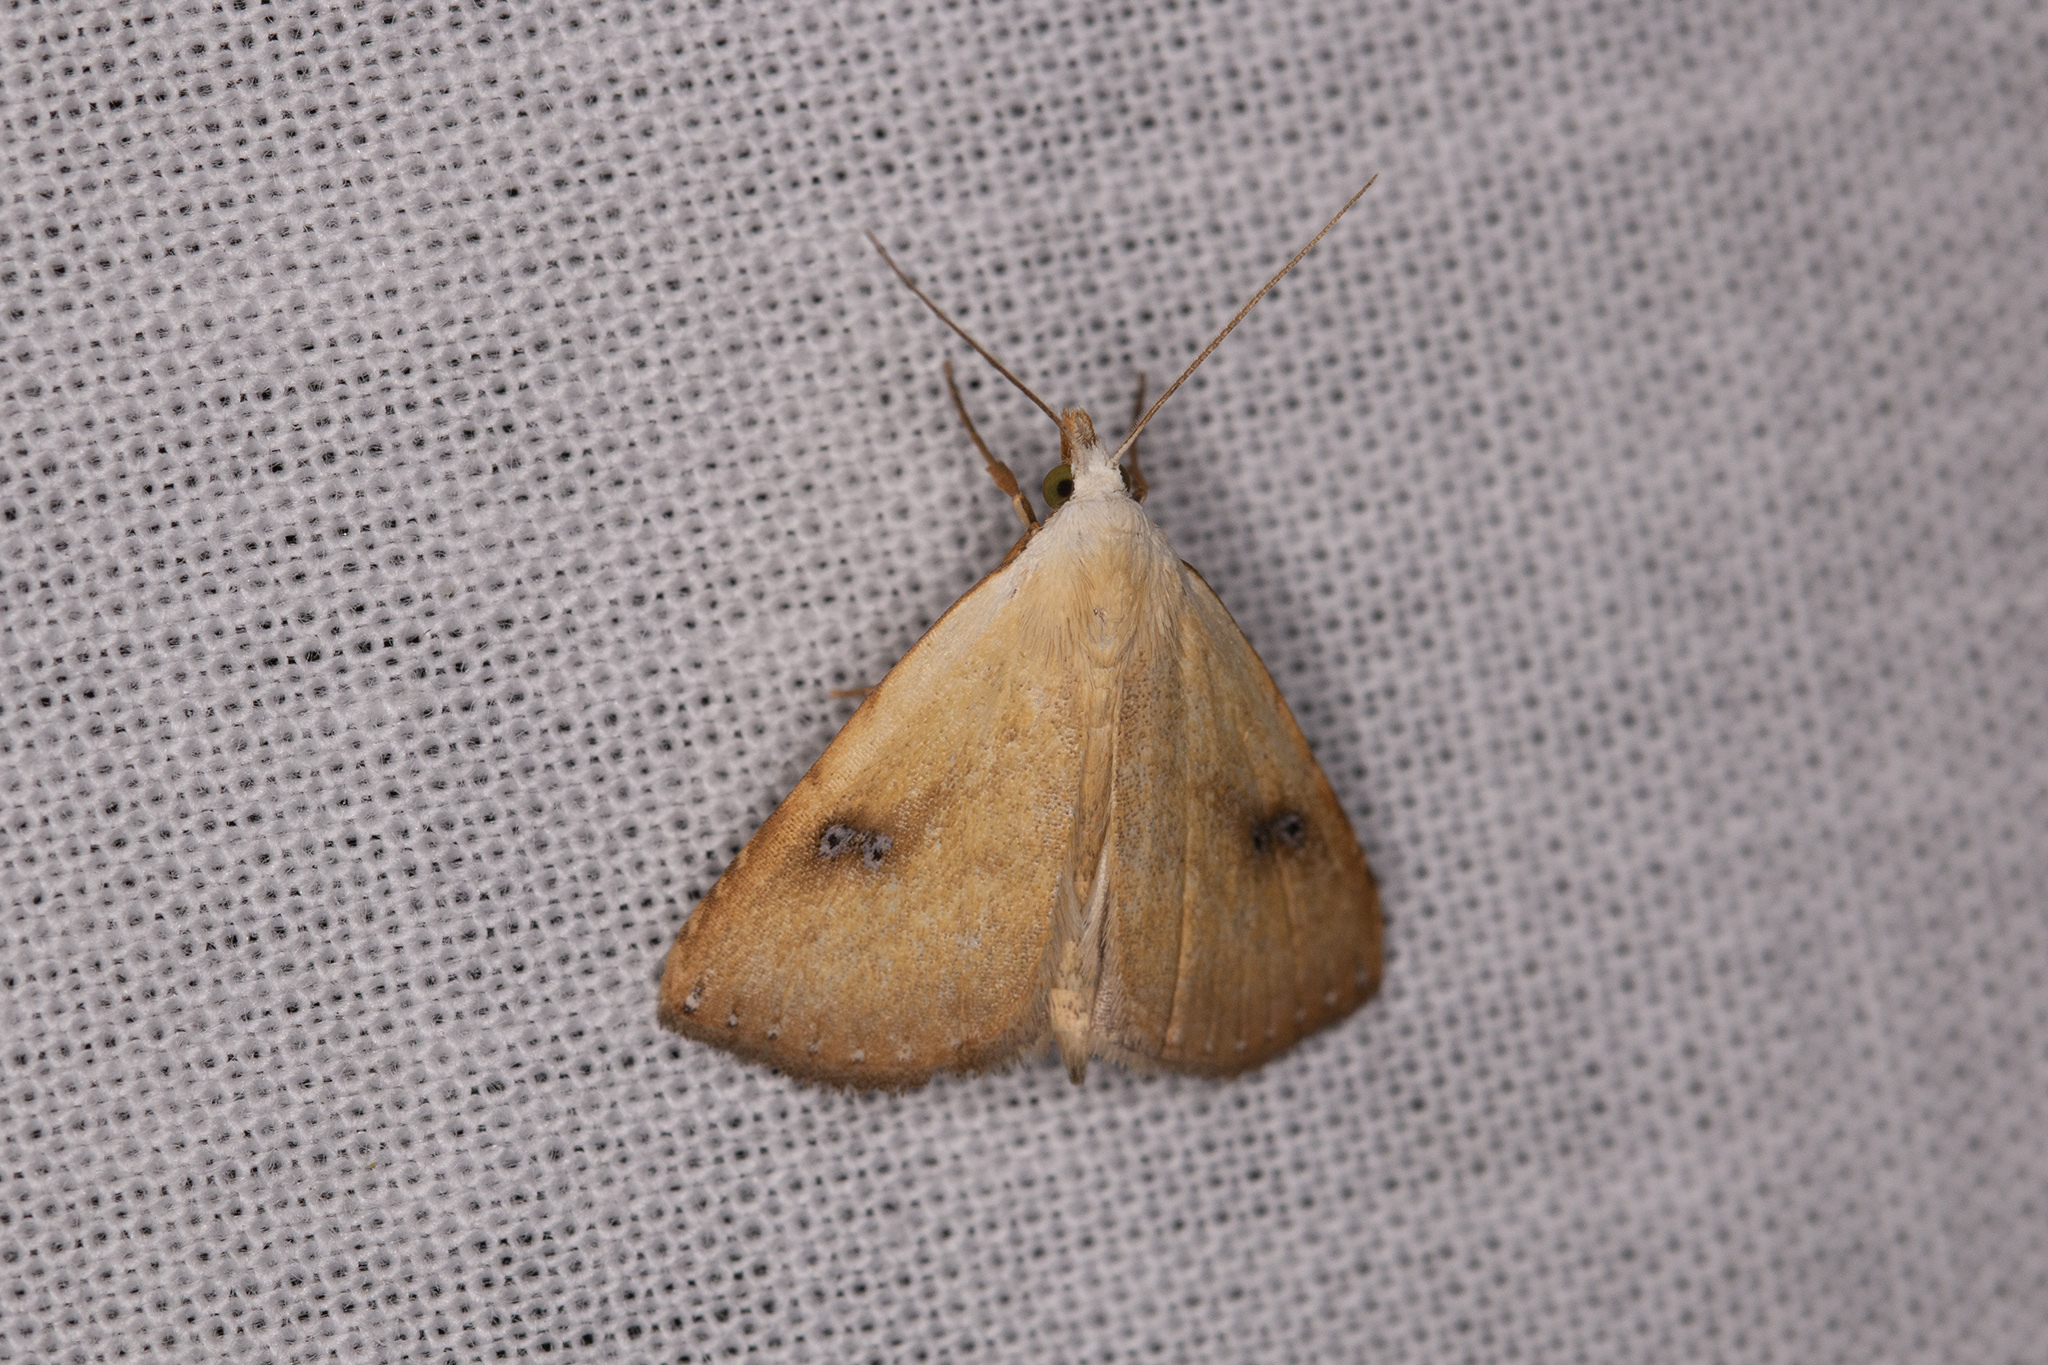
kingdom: Animalia
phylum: Arthropoda
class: Insecta
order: Lepidoptera
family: Erebidae
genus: Rivula
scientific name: Rivula sericealis
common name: Straw dot
